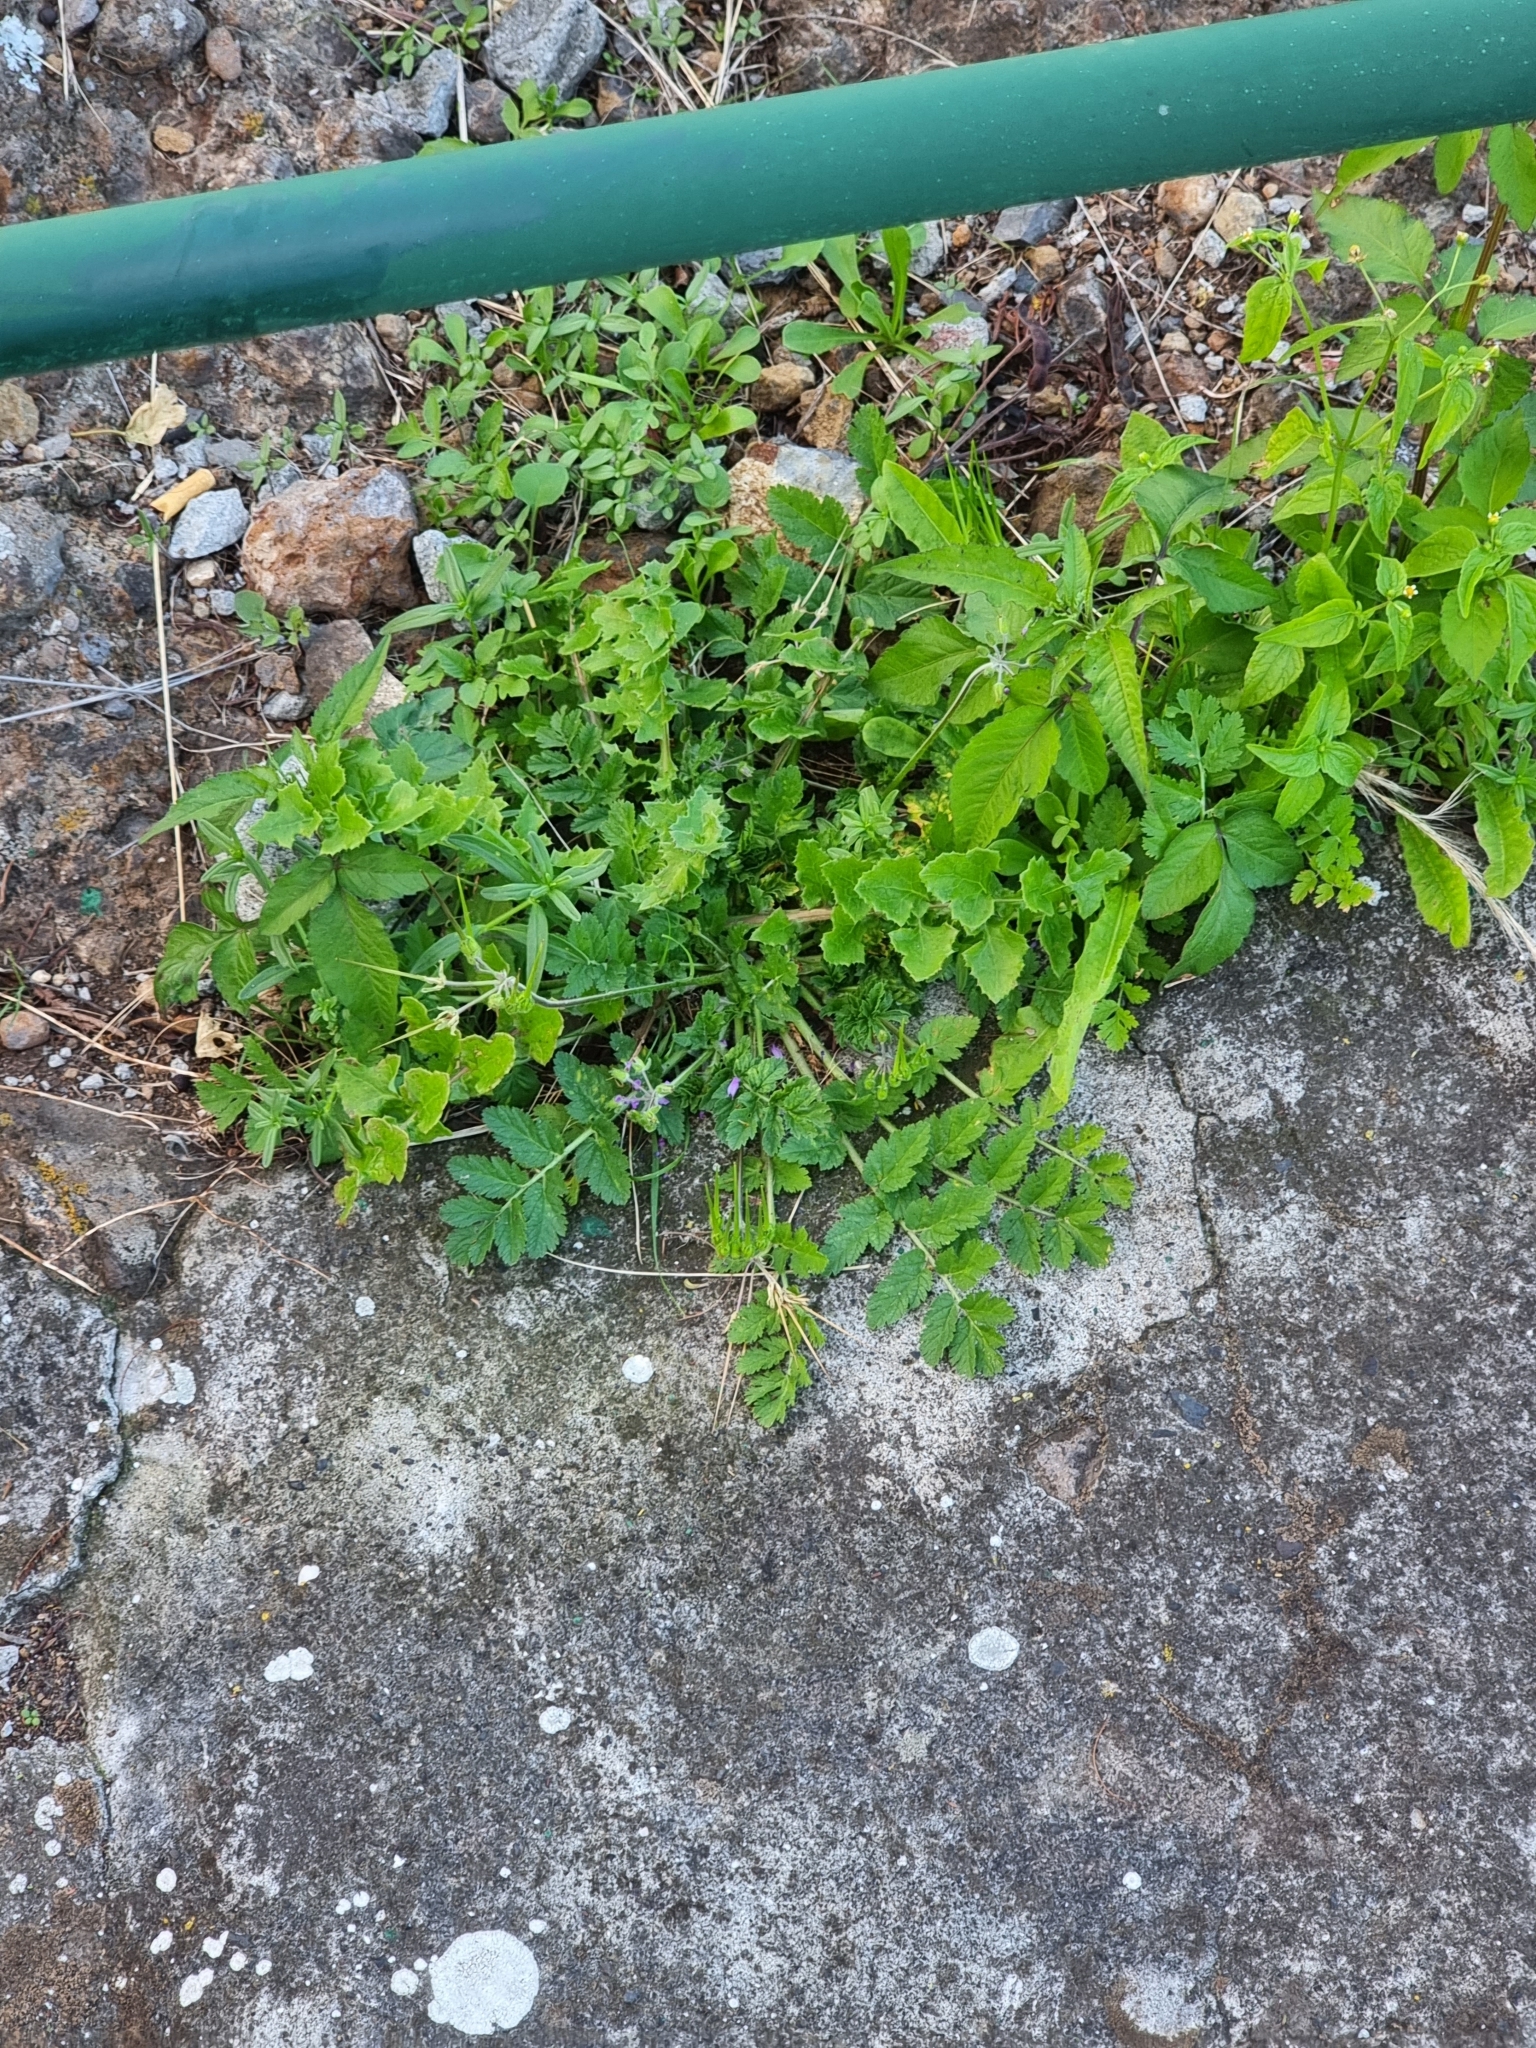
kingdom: Plantae
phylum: Tracheophyta
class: Magnoliopsida
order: Geraniales
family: Geraniaceae
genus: Erodium
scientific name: Erodium moschatum
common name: Musk stork's-bill
